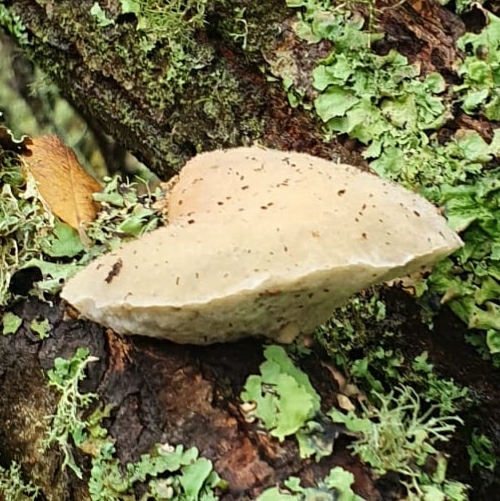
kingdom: Fungi
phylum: Basidiomycota
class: Agaricomycetes
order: Polyporales
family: Incrustoporiaceae
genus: Tyromyces
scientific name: Tyromyces chioneus
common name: White cheese polypore
